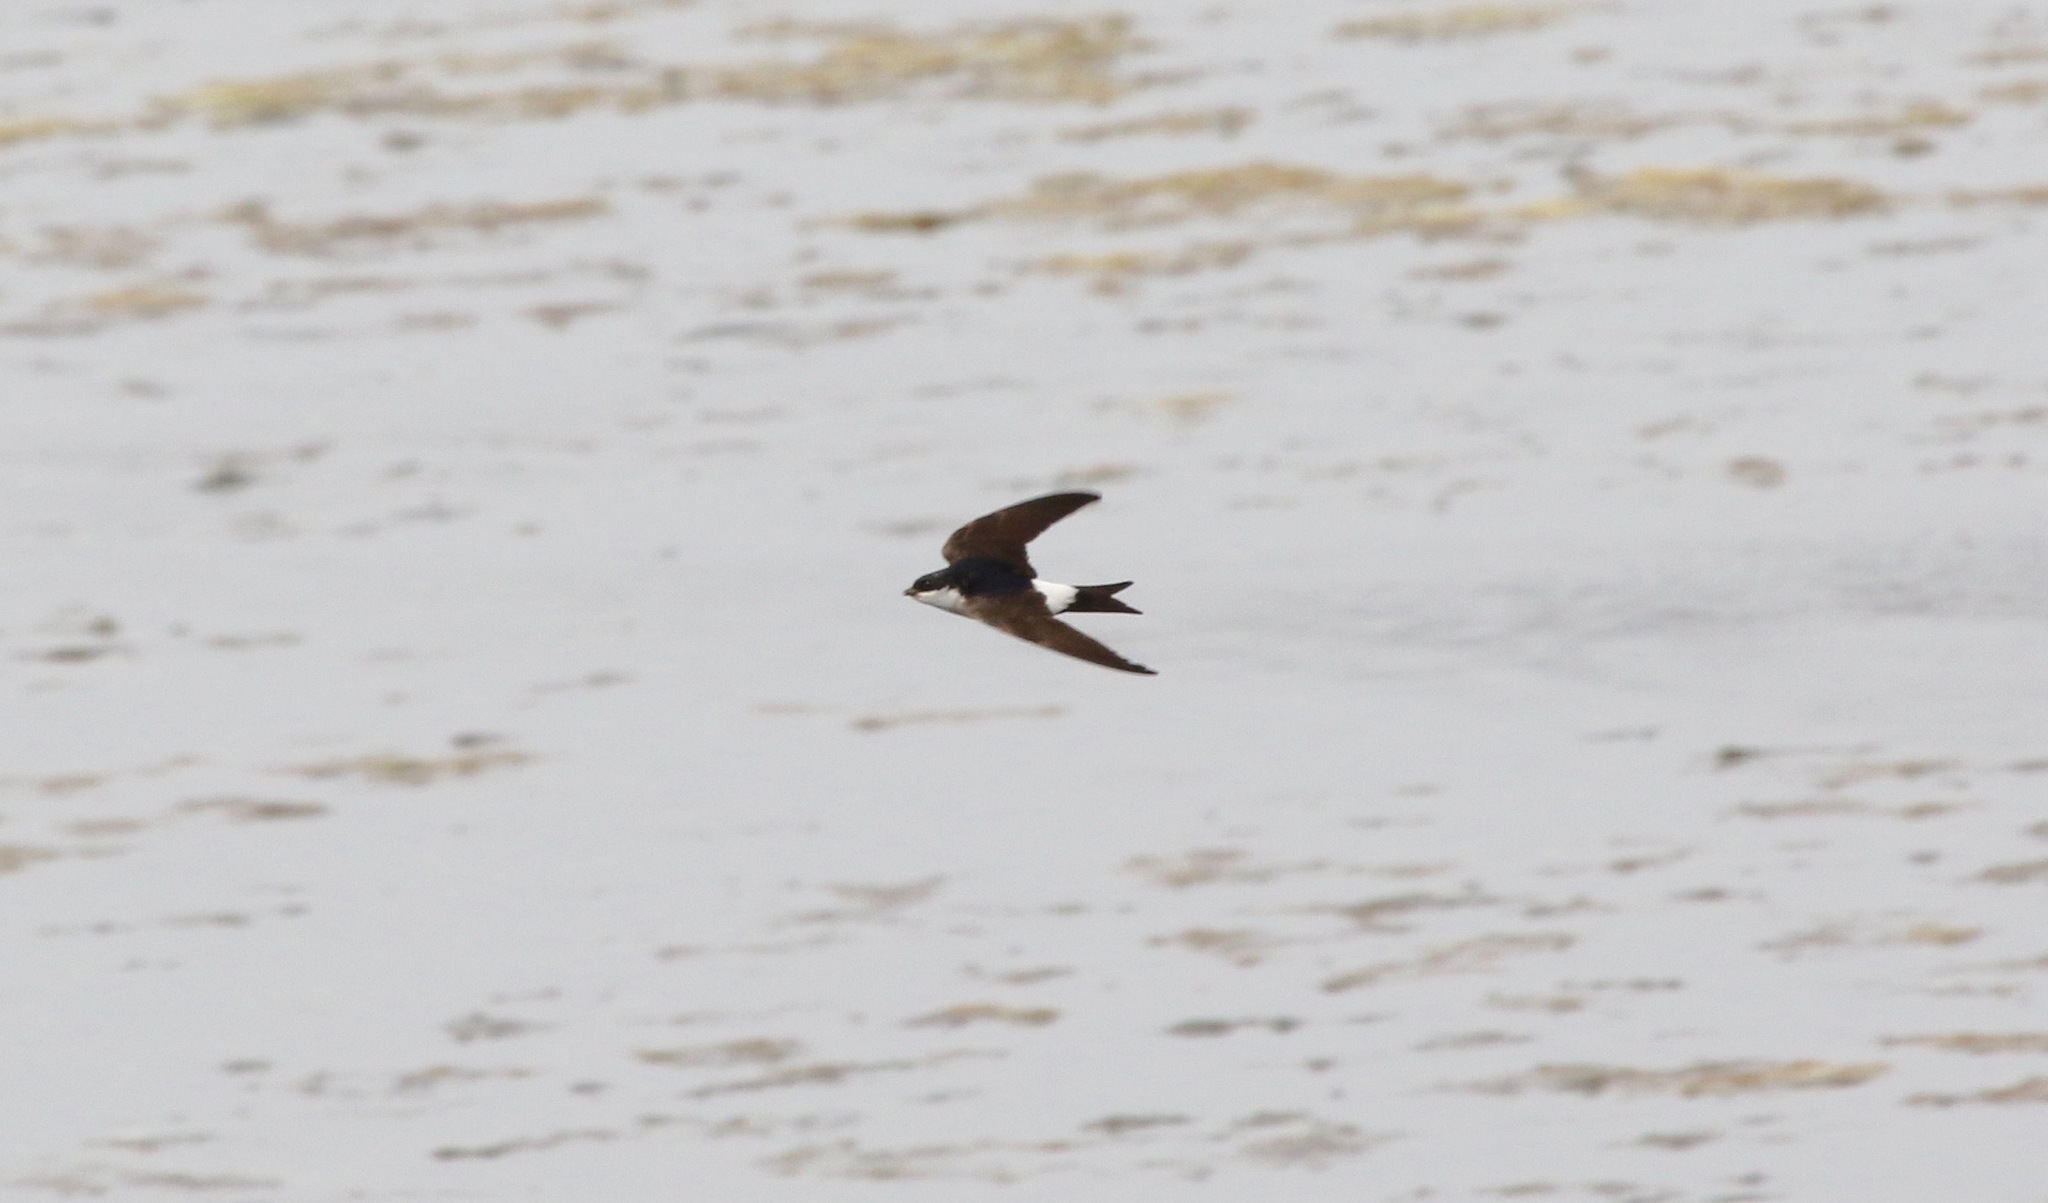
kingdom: Animalia
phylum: Chordata
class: Aves
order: Passeriformes
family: Hirundinidae
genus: Delichon
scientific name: Delichon urbicum
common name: Common house martin
